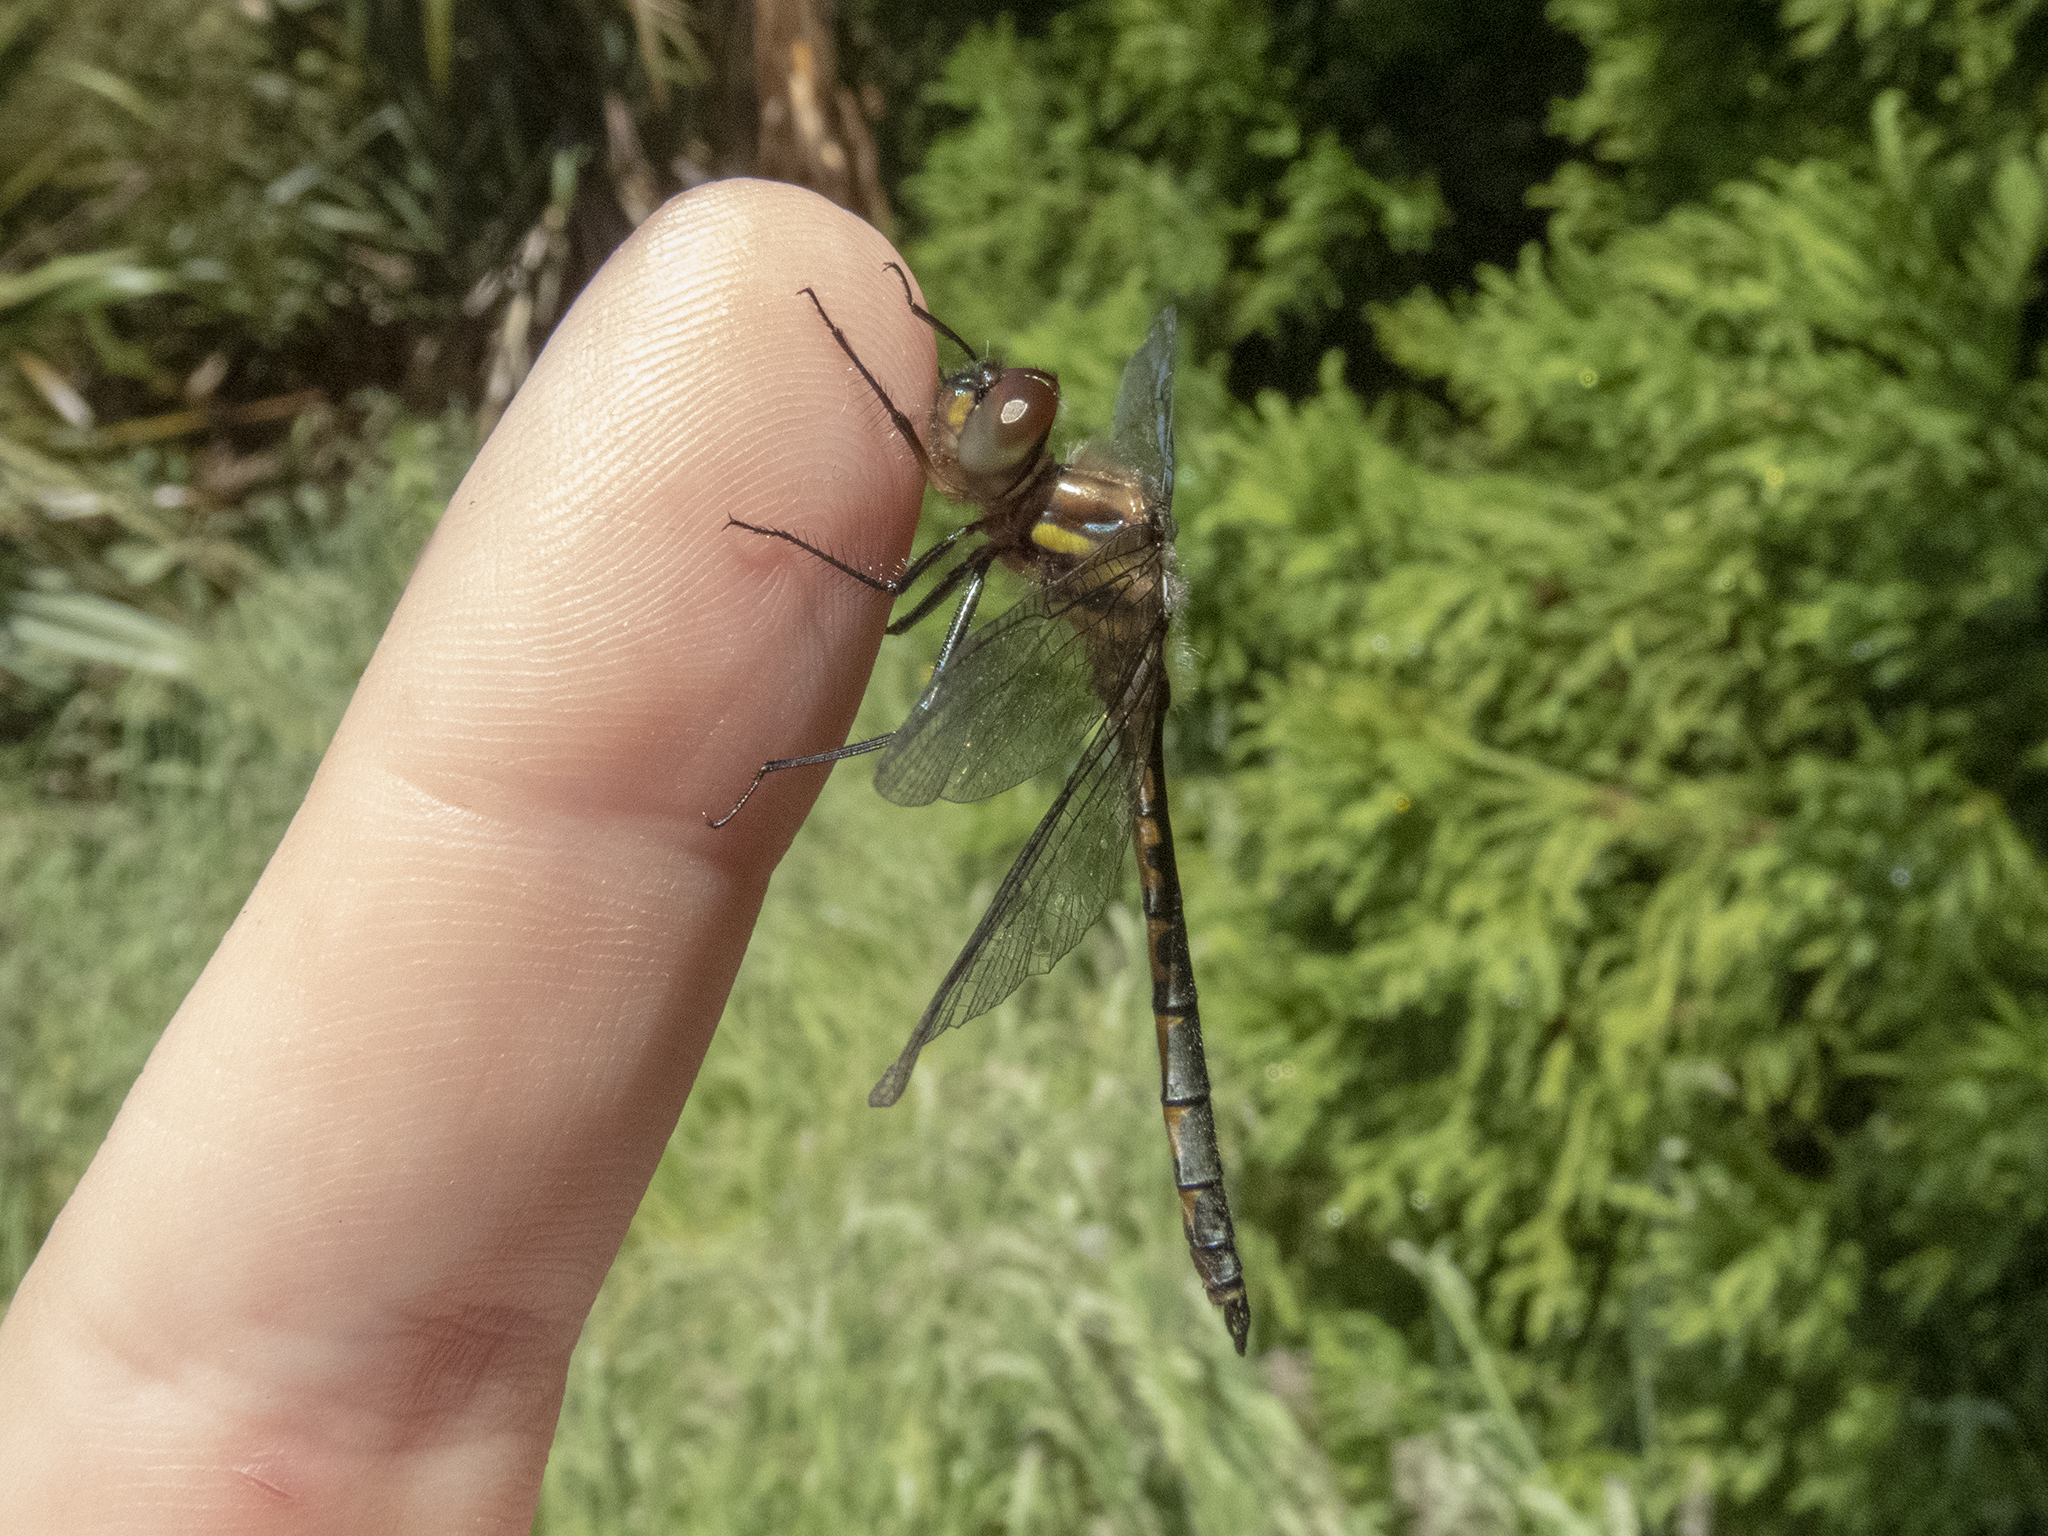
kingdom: Animalia
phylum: Arthropoda
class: Insecta
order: Odonata
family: Corduliidae
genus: Hemicordulia
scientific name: Hemicordulia australiae
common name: Sentry dragonfly
